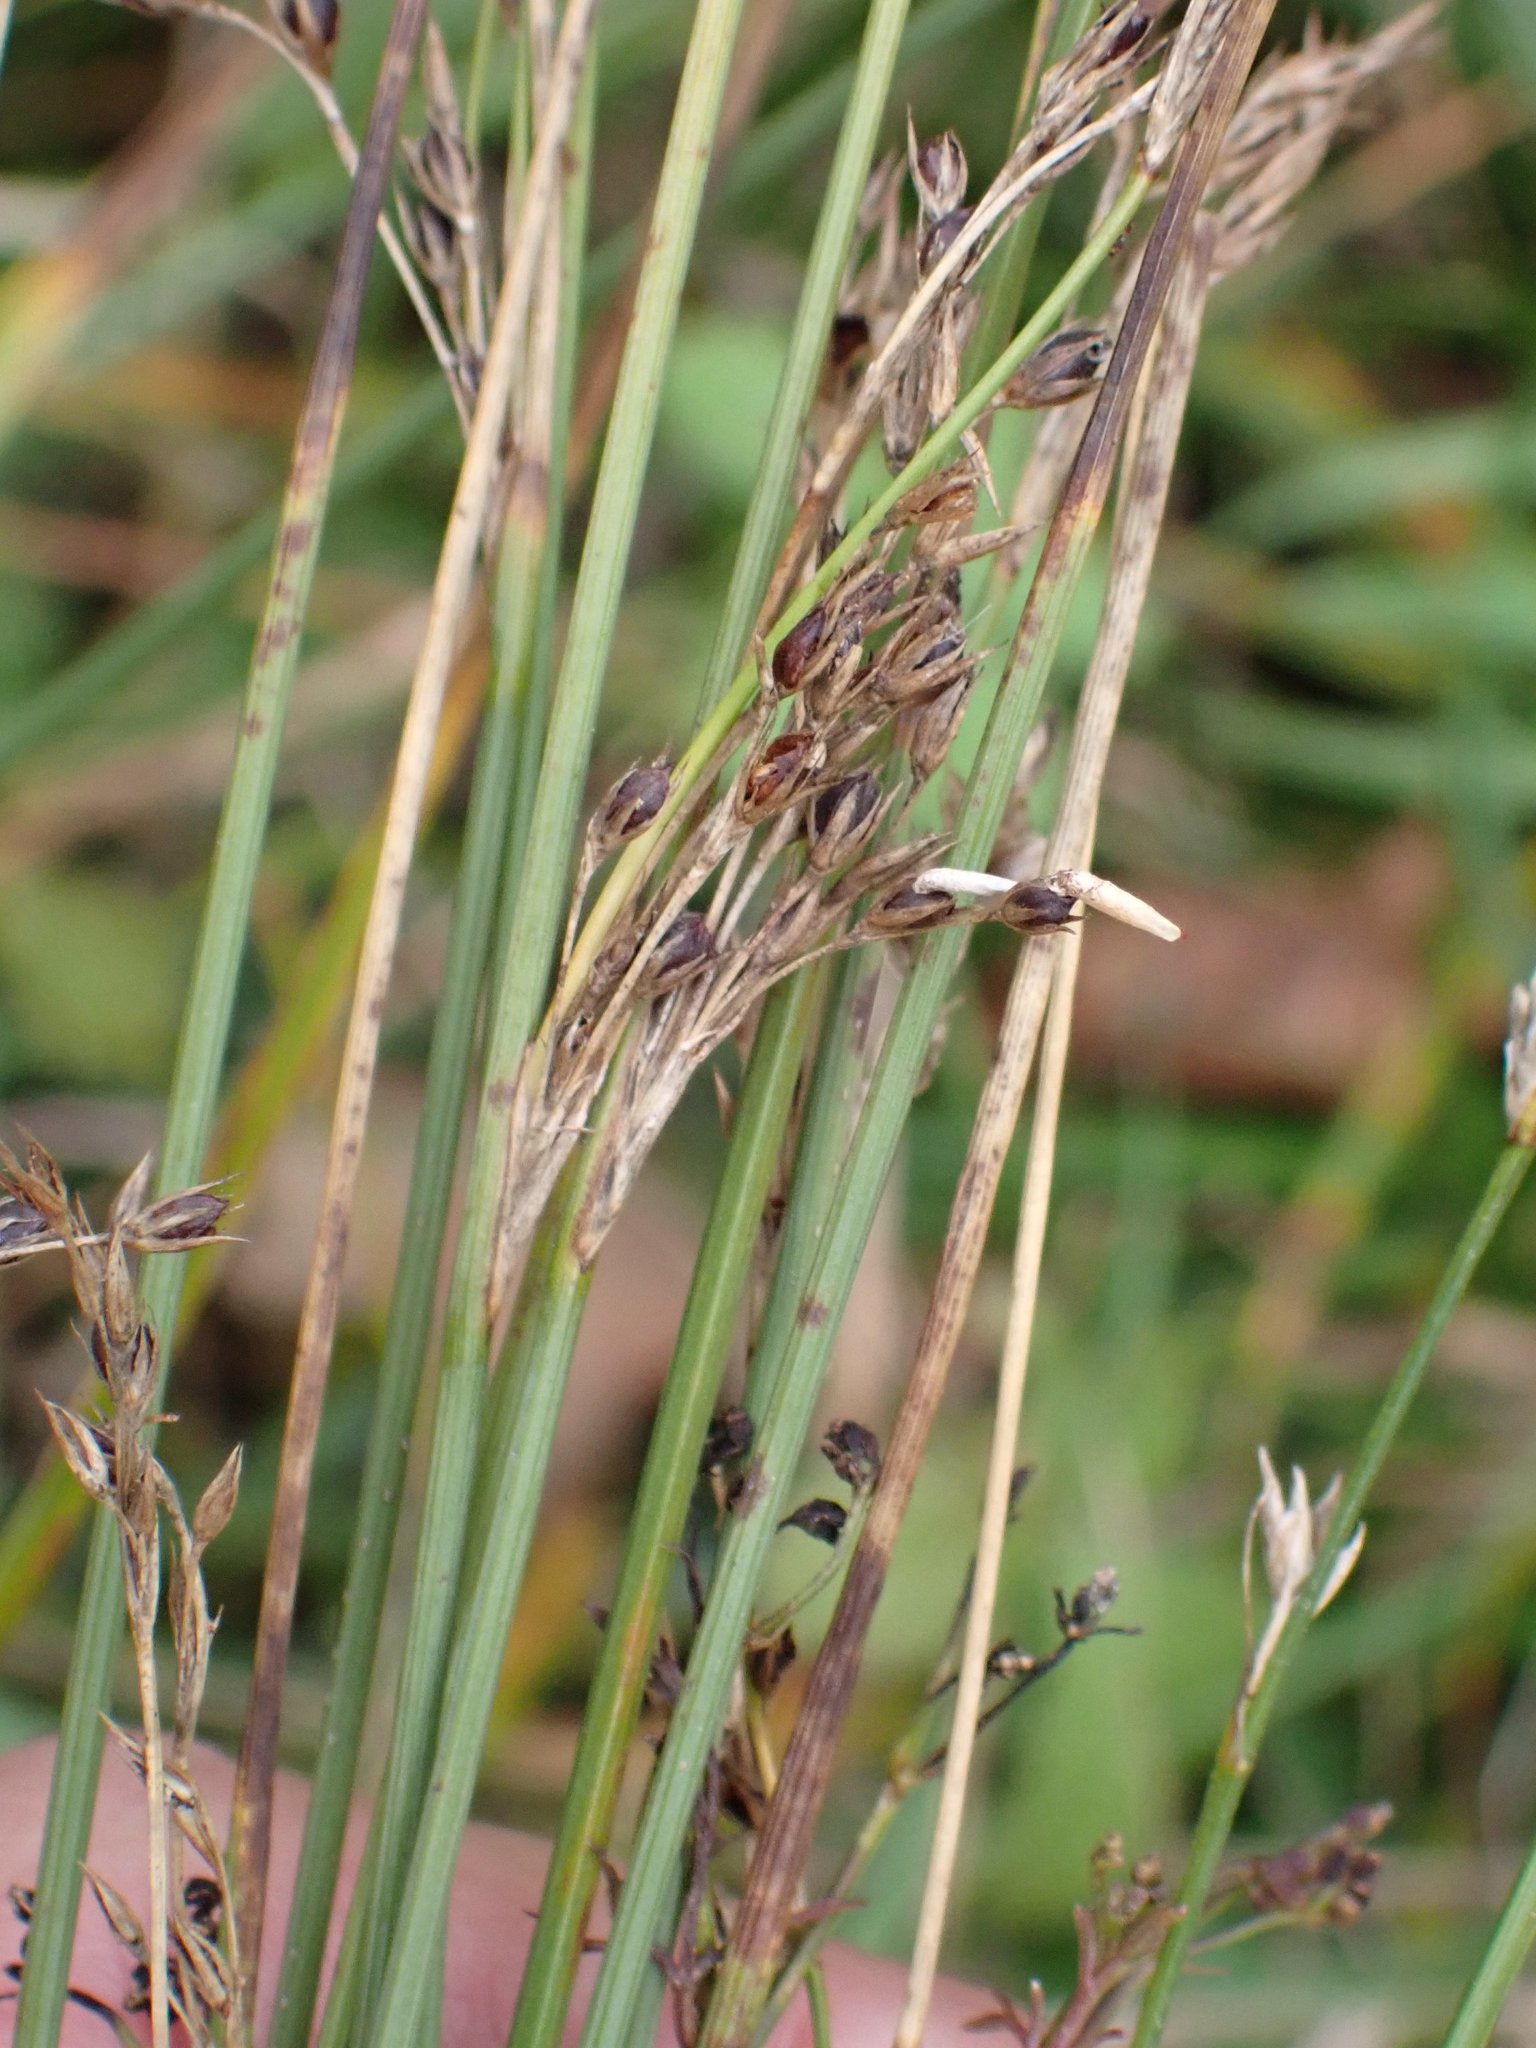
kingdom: Plantae
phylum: Tracheophyta
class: Liliopsida
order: Poales
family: Juncaceae
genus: Juncus
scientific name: Juncus inflexus
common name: Hard rush
